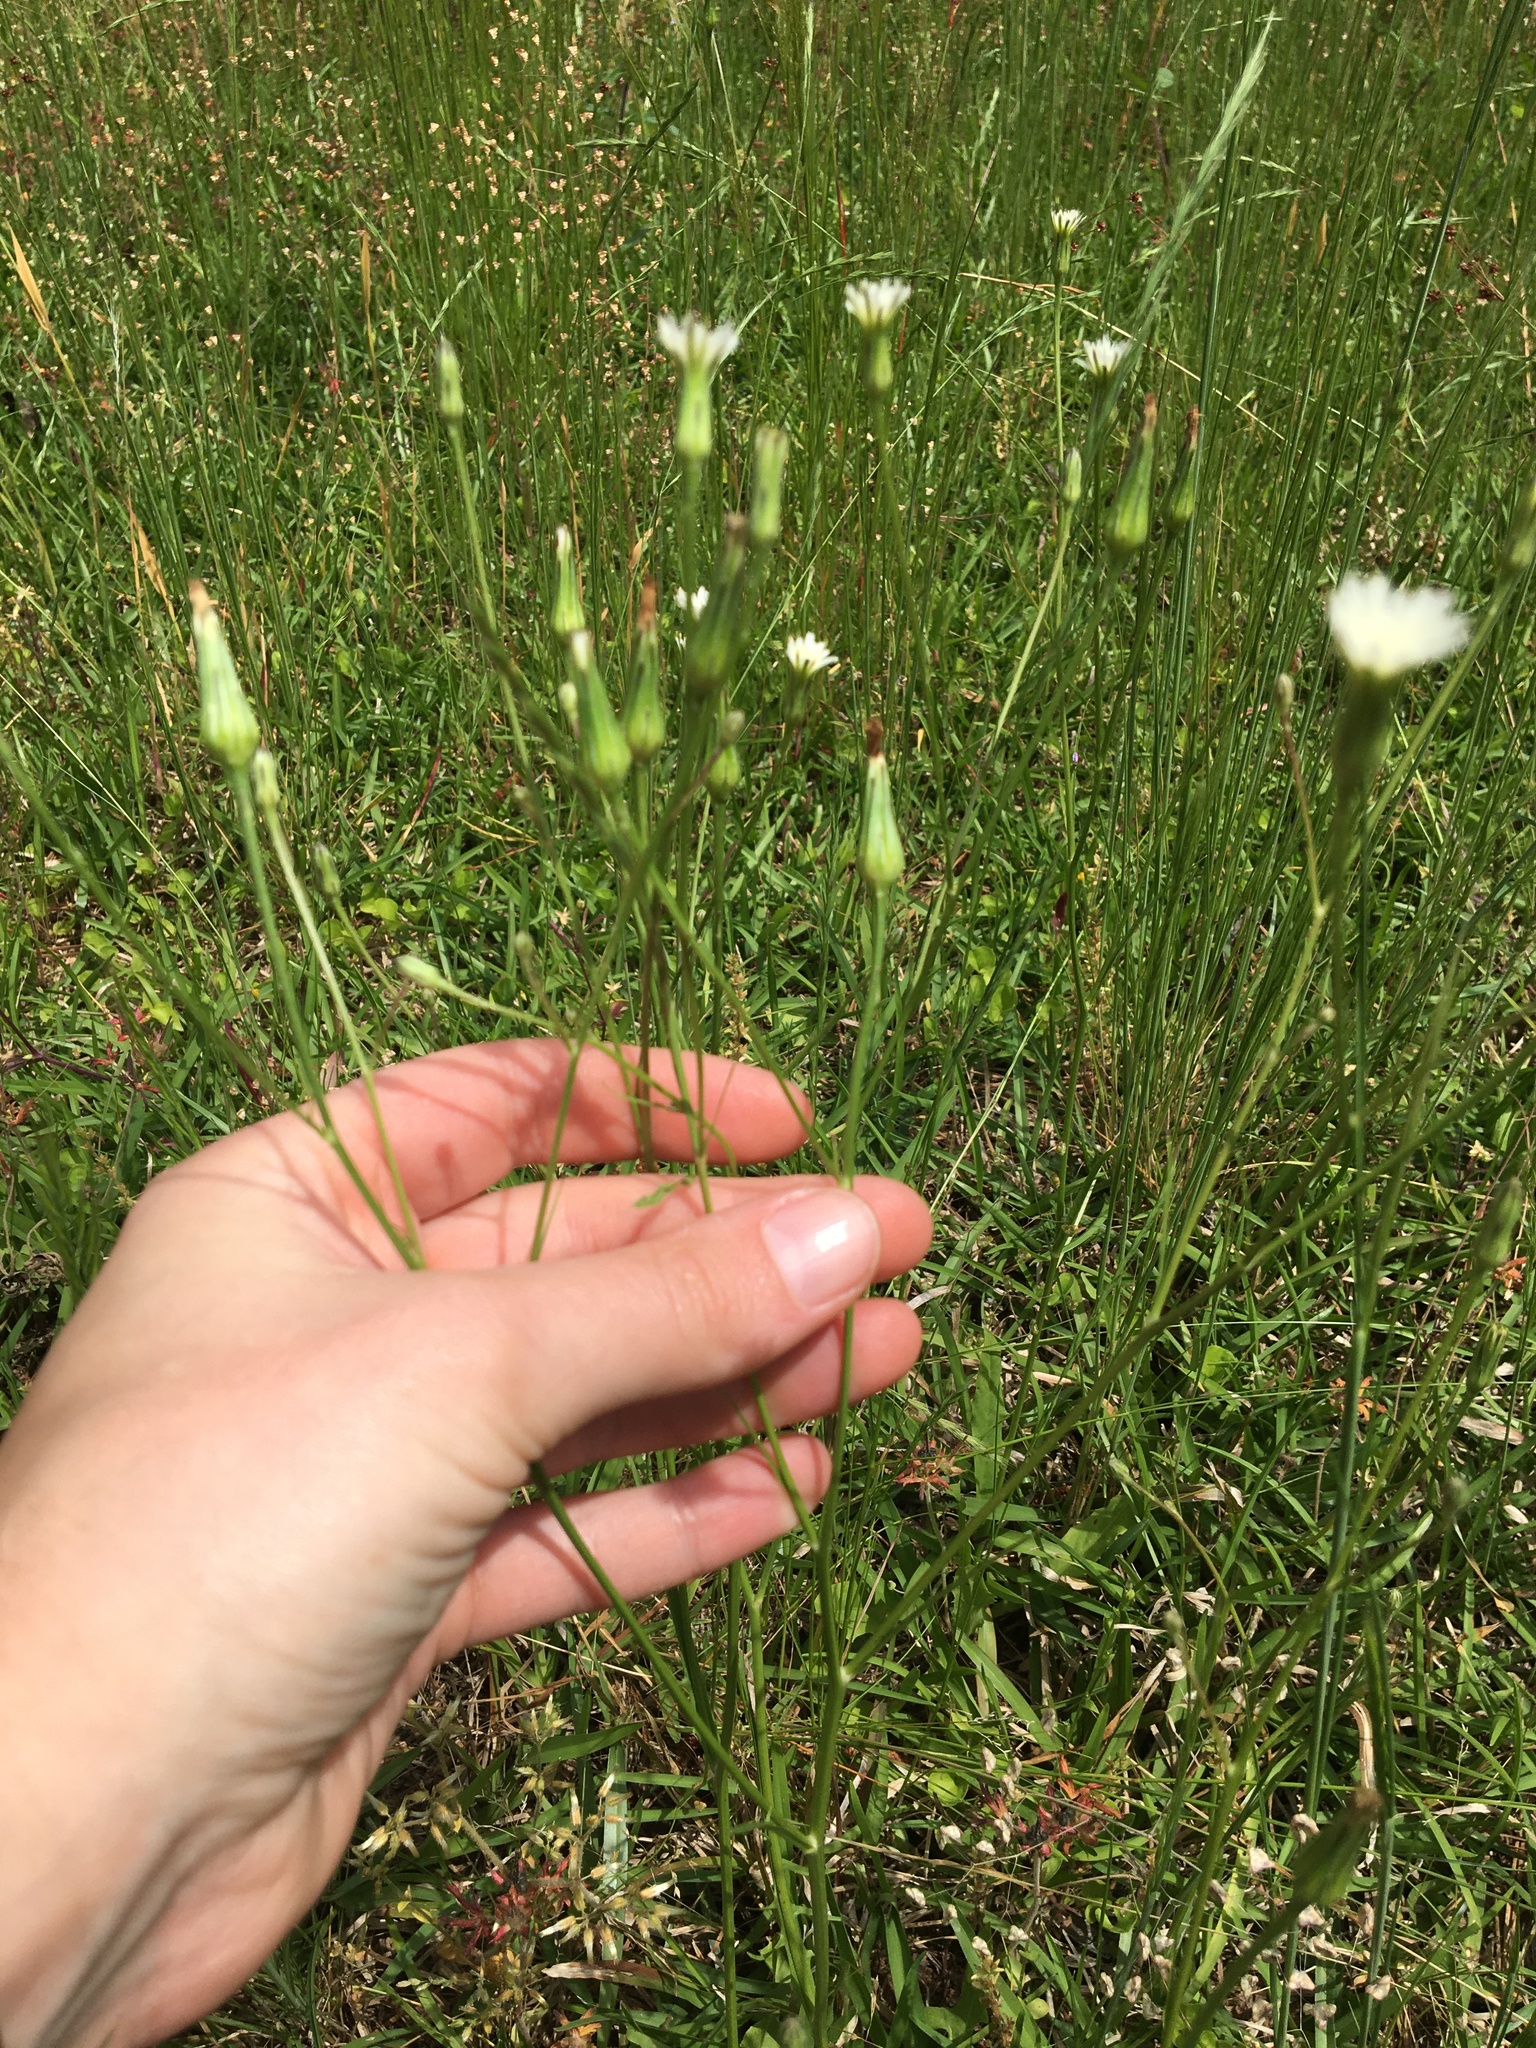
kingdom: Plantae
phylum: Tracheophyta
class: Magnoliopsida
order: Asterales
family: Asteraceae
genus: Hypochaeris
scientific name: Hypochaeris albiflora
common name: White flatweed
